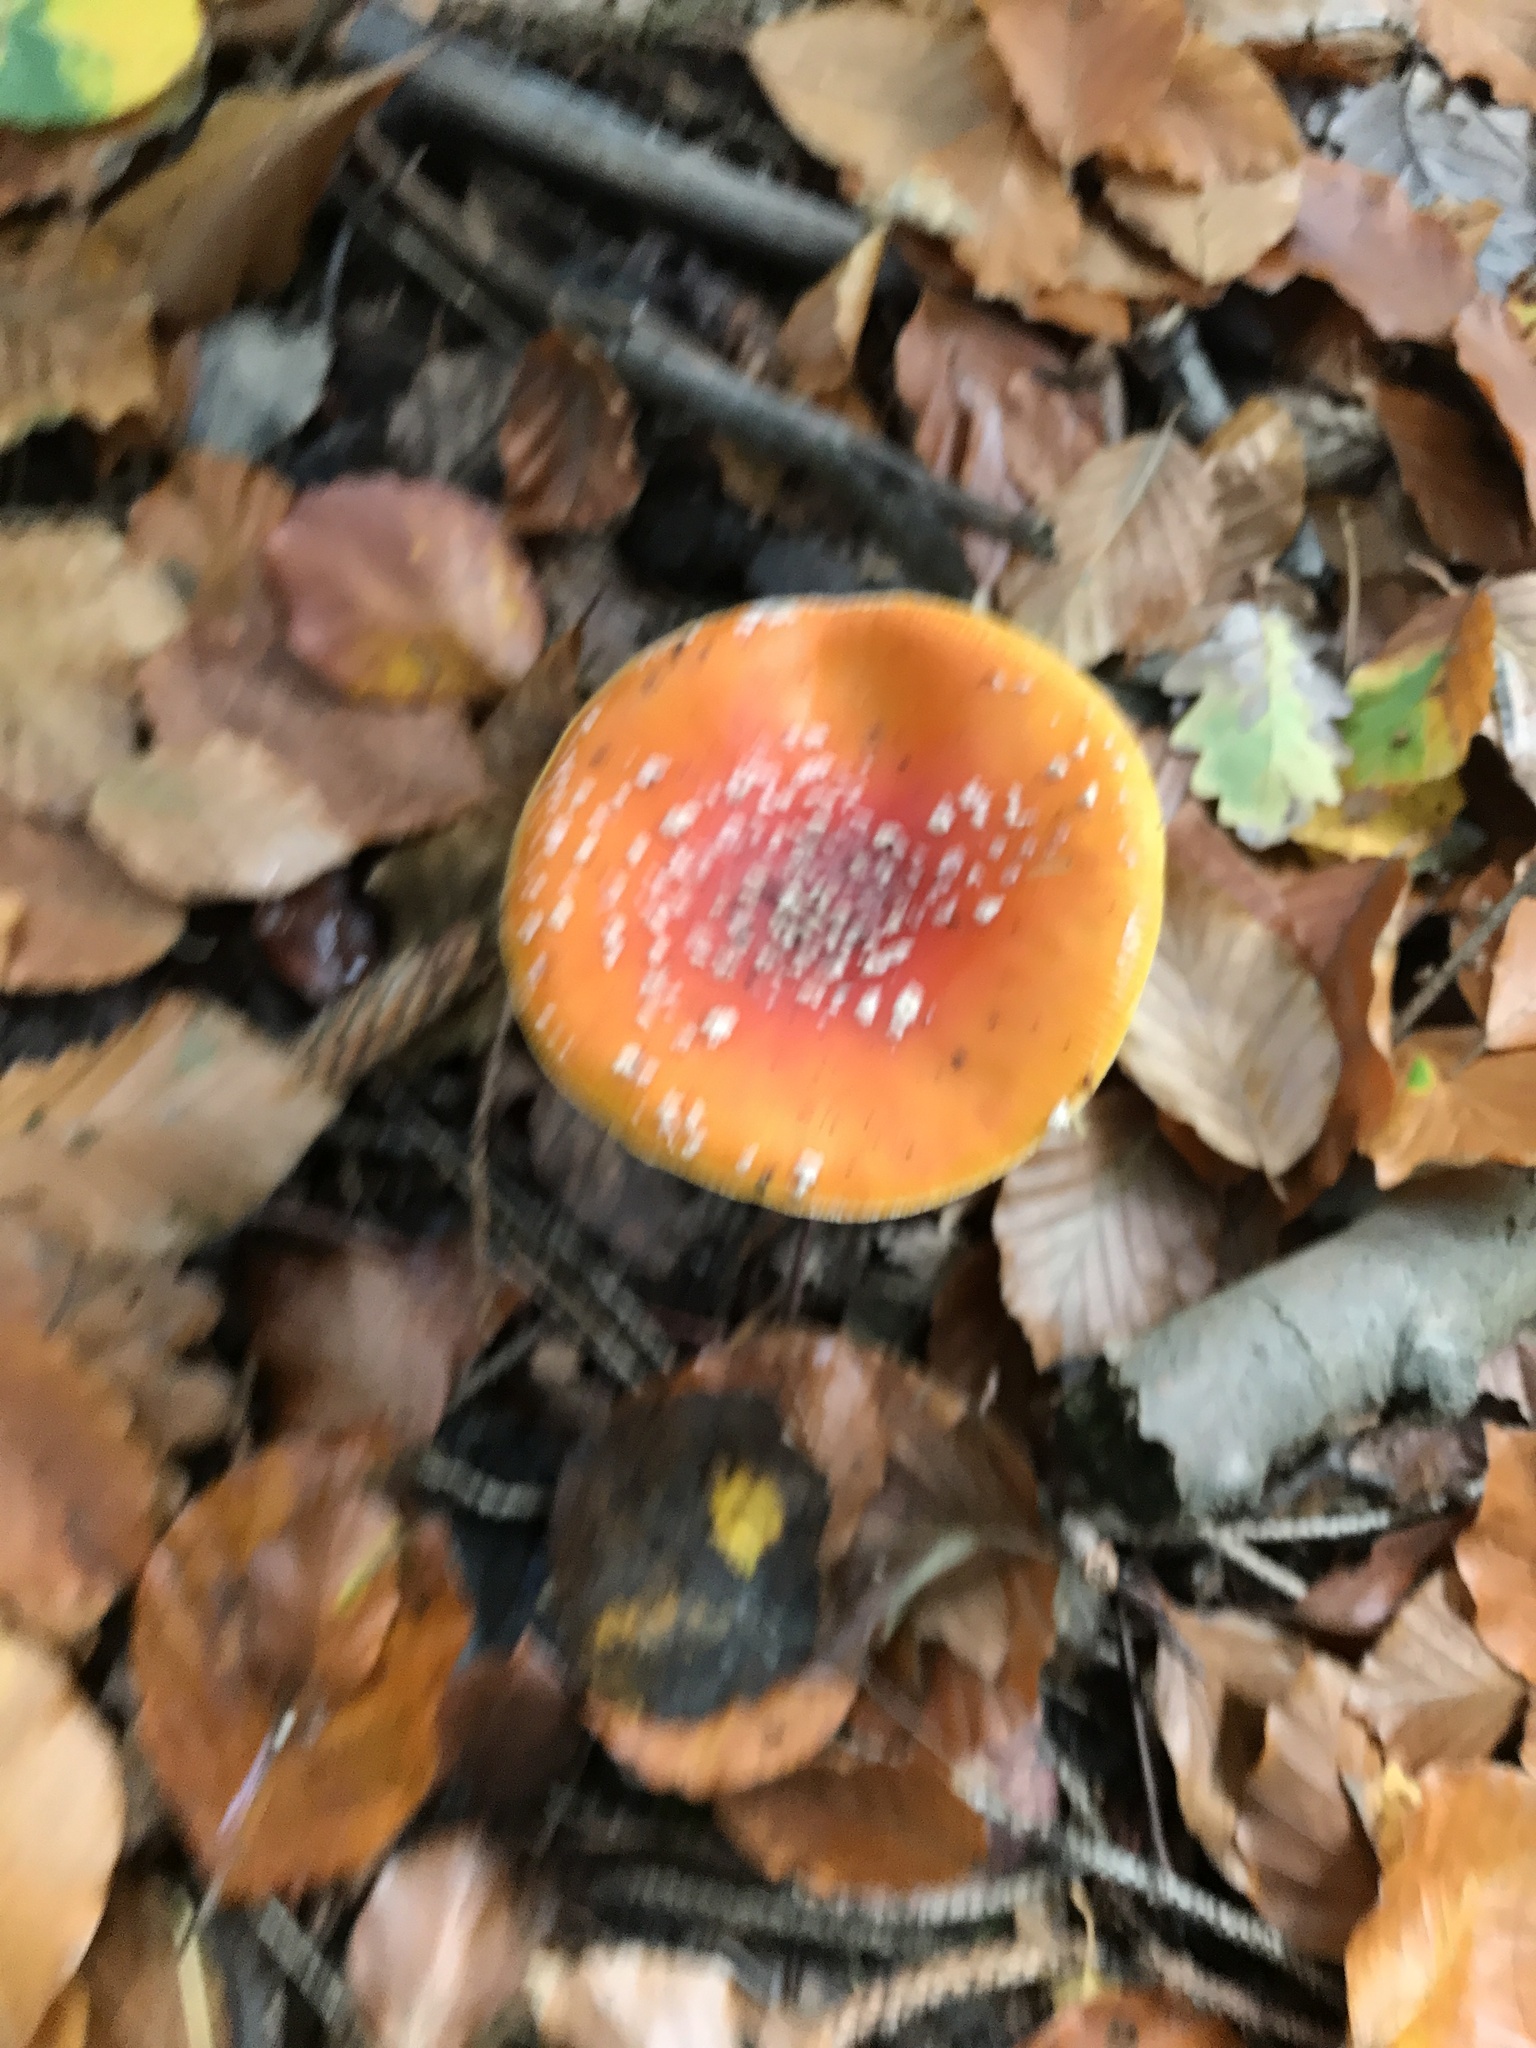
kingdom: Fungi
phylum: Basidiomycota
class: Agaricomycetes
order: Agaricales
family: Amanitaceae
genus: Amanita
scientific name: Amanita muscaria
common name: Fly agaric
